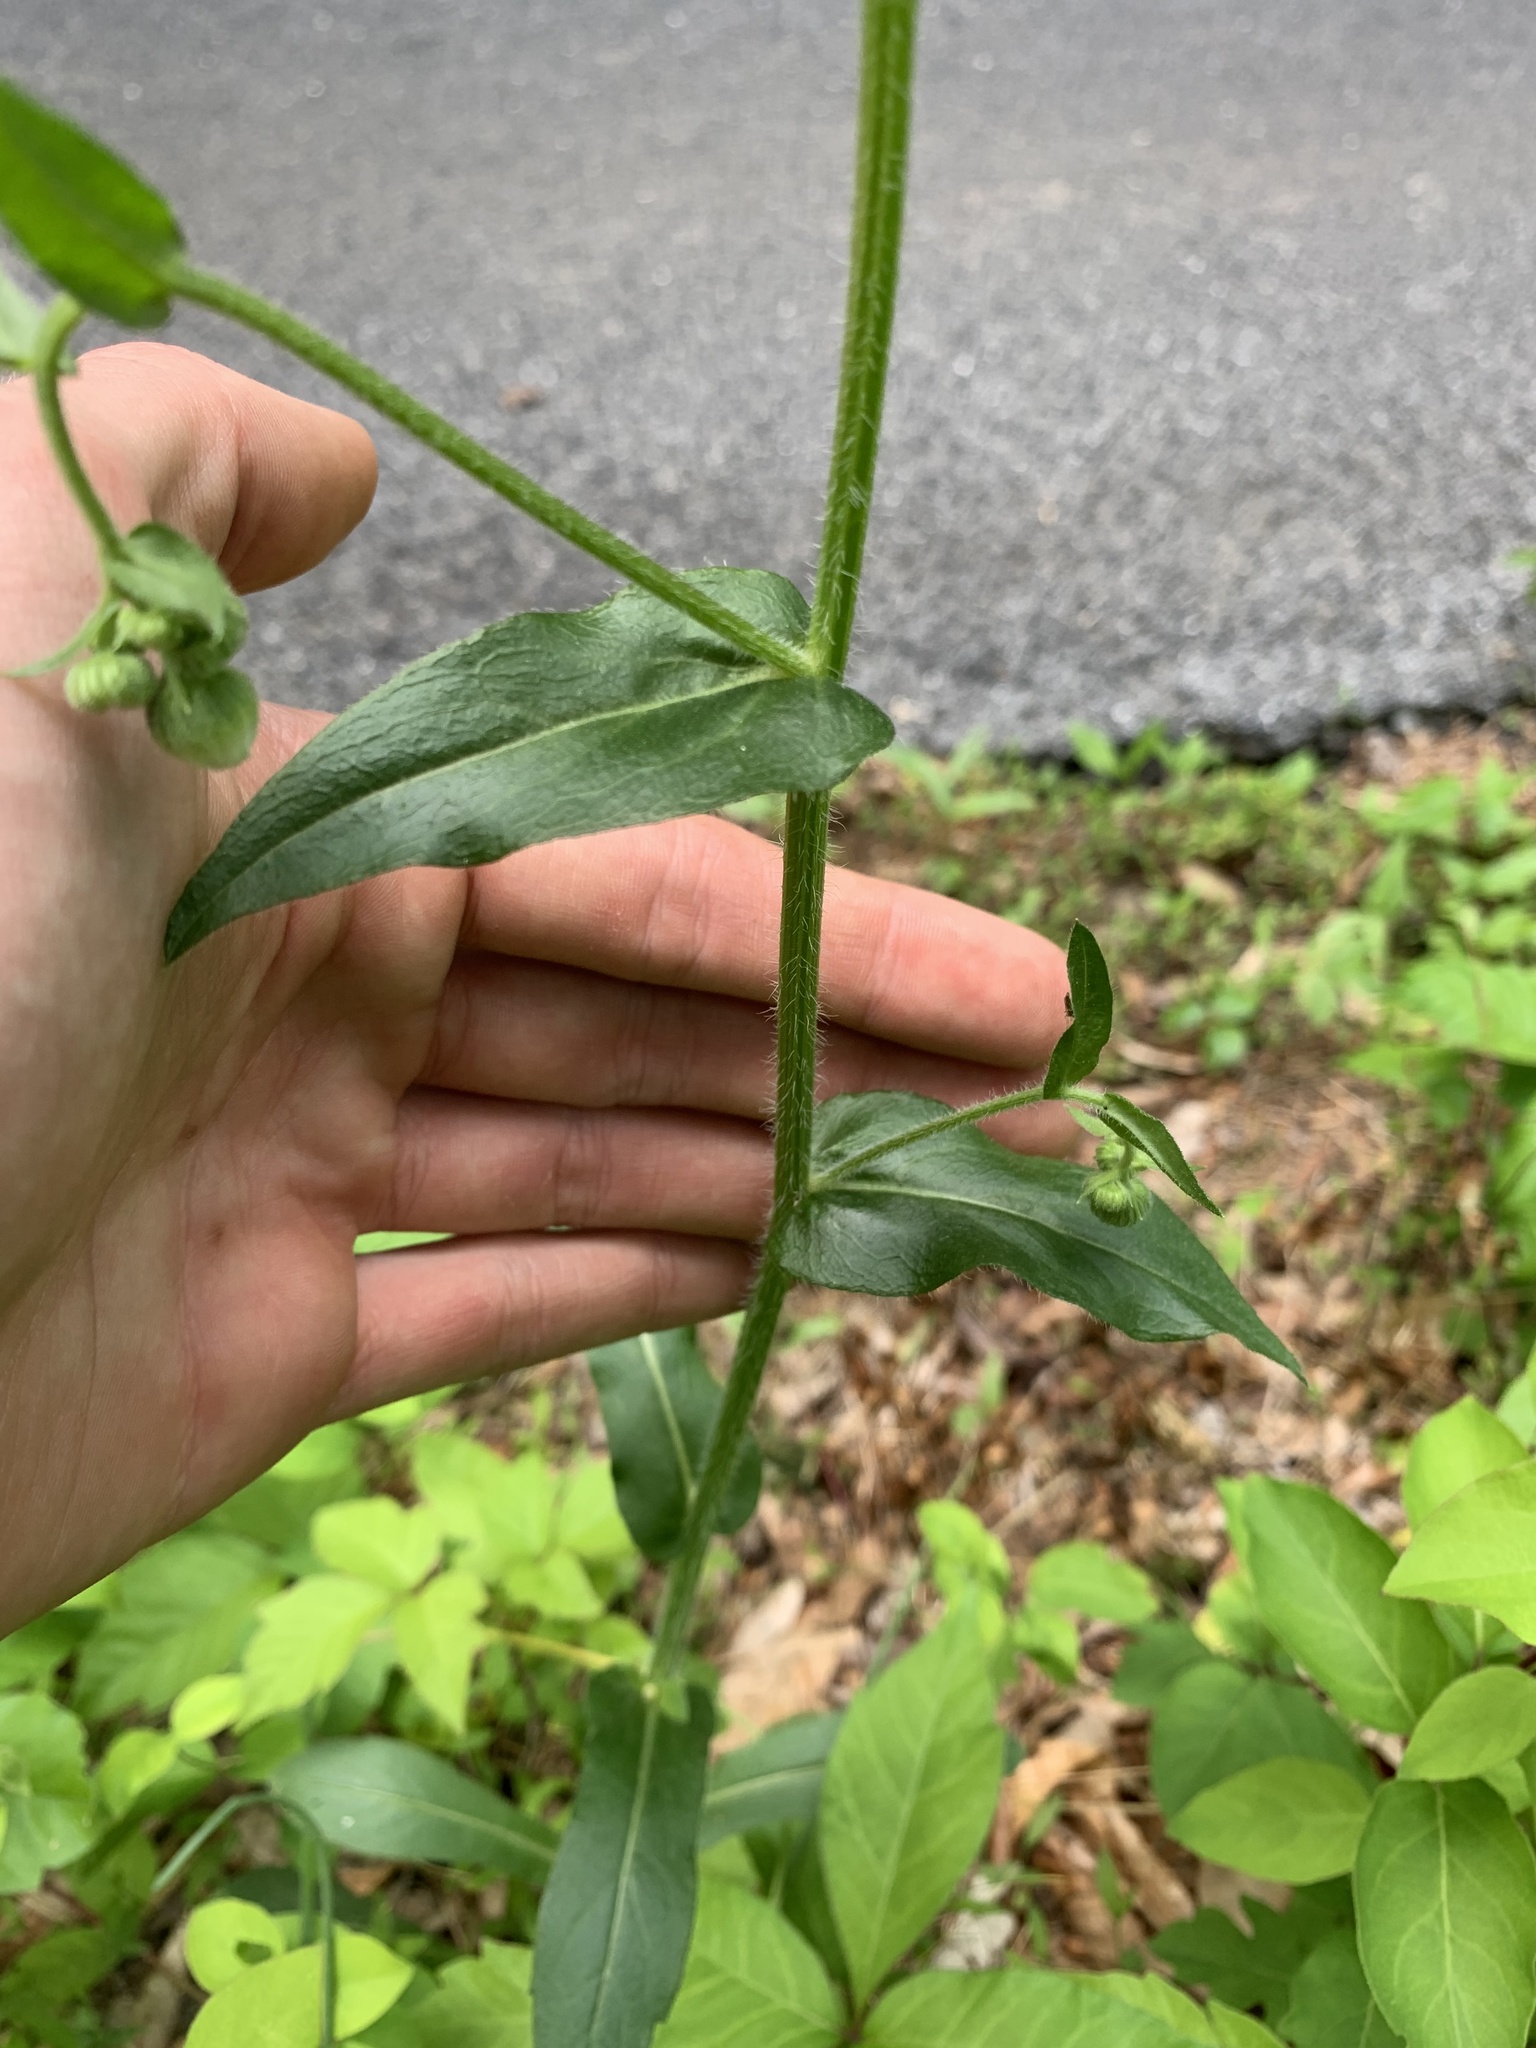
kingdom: Plantae
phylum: Tracheophyta
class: Magnoliopsida
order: Asterales
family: Asteraceae
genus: Erigeron
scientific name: Erigeron philadelphicus
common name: Robin's-plantain
